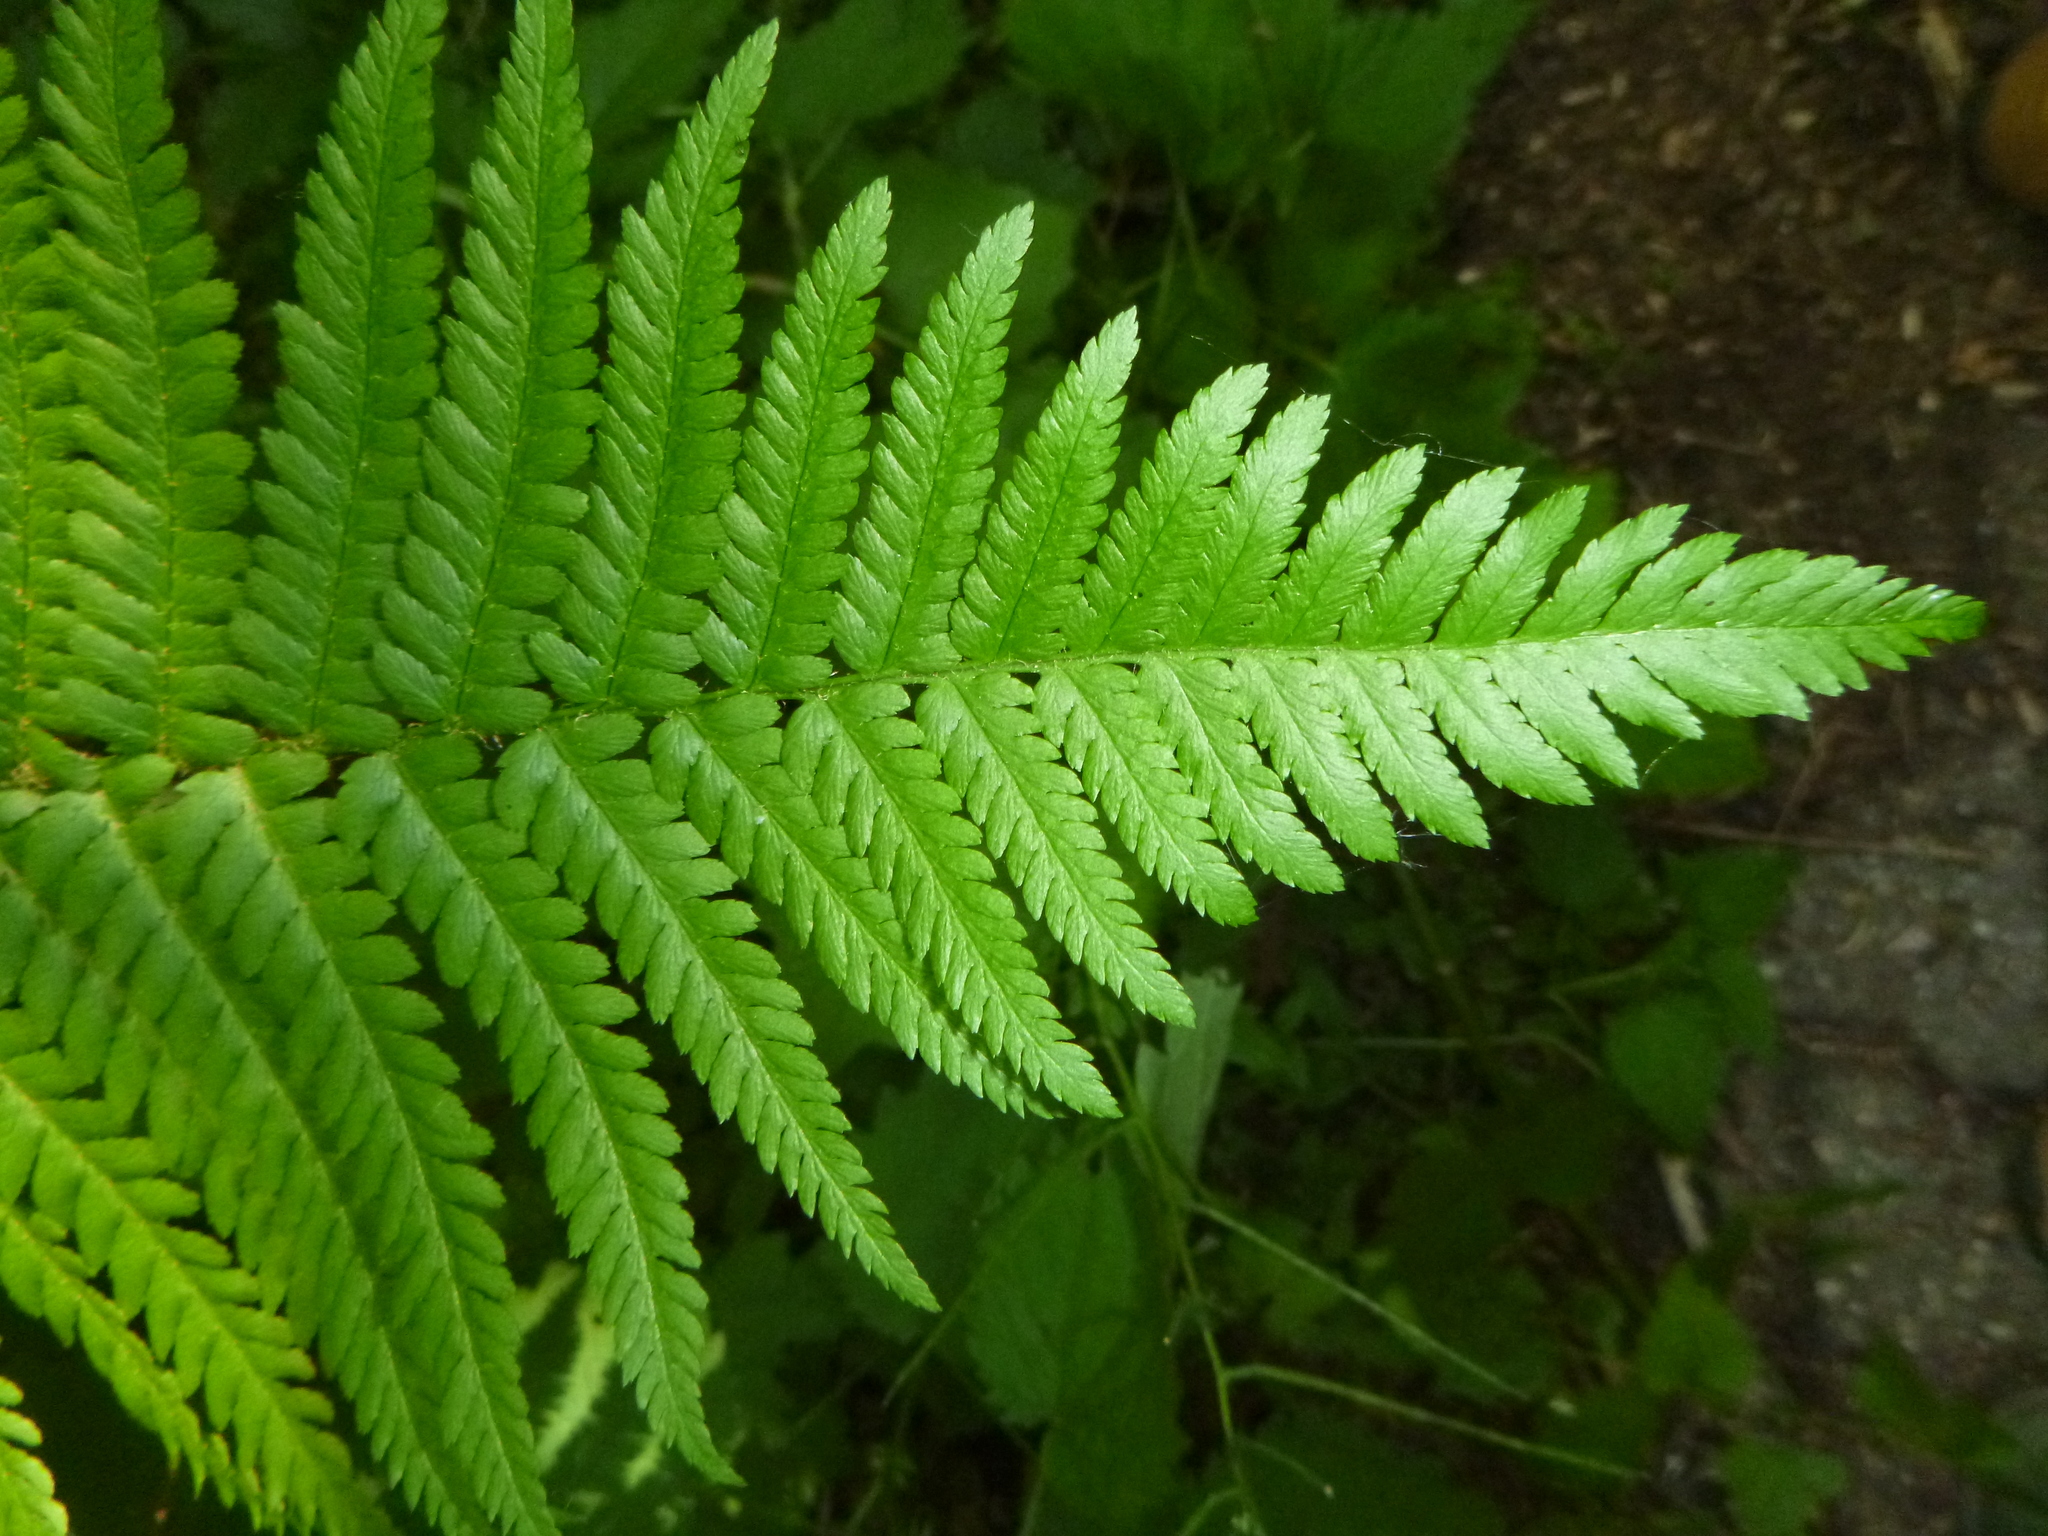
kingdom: Plantae
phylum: Tracheophyta
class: Polypodiopsida
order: Polypodiales
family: Dryopteridaceae
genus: Dryopteris
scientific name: Dryopteris filix-mas
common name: Male fern
